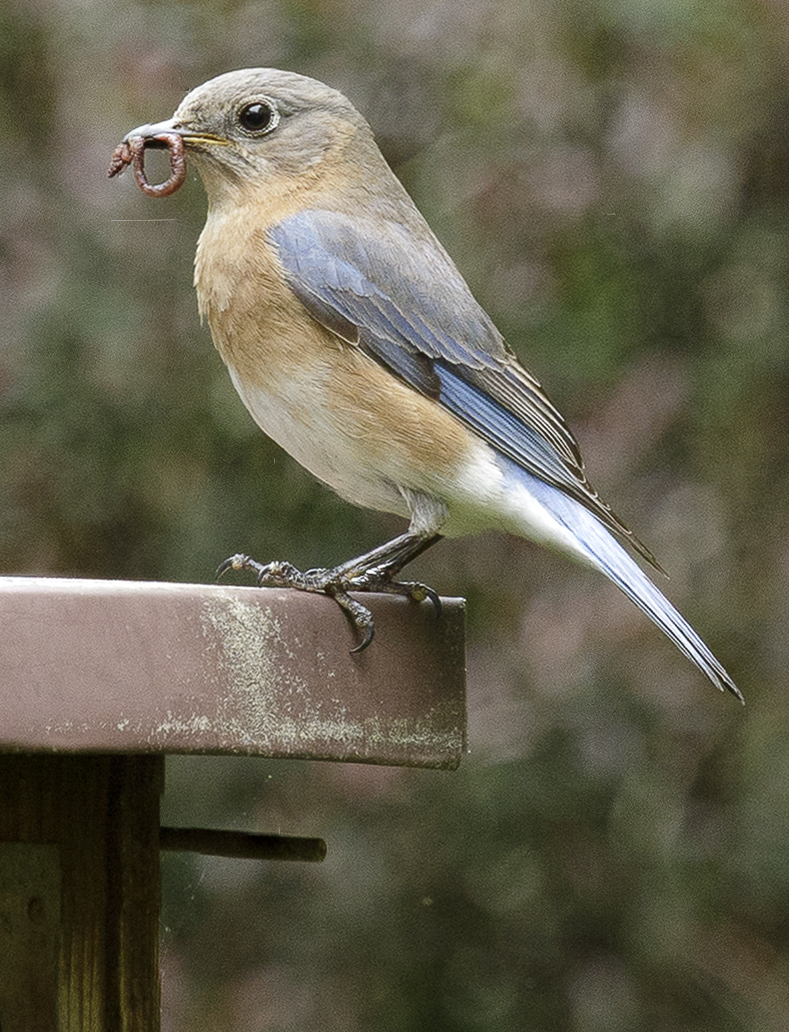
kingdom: Animalia
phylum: Chordata
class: Aves
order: Passeriformes
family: Turdidae
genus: Sialia
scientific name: Sialia sialis
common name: Eastern bluebird
